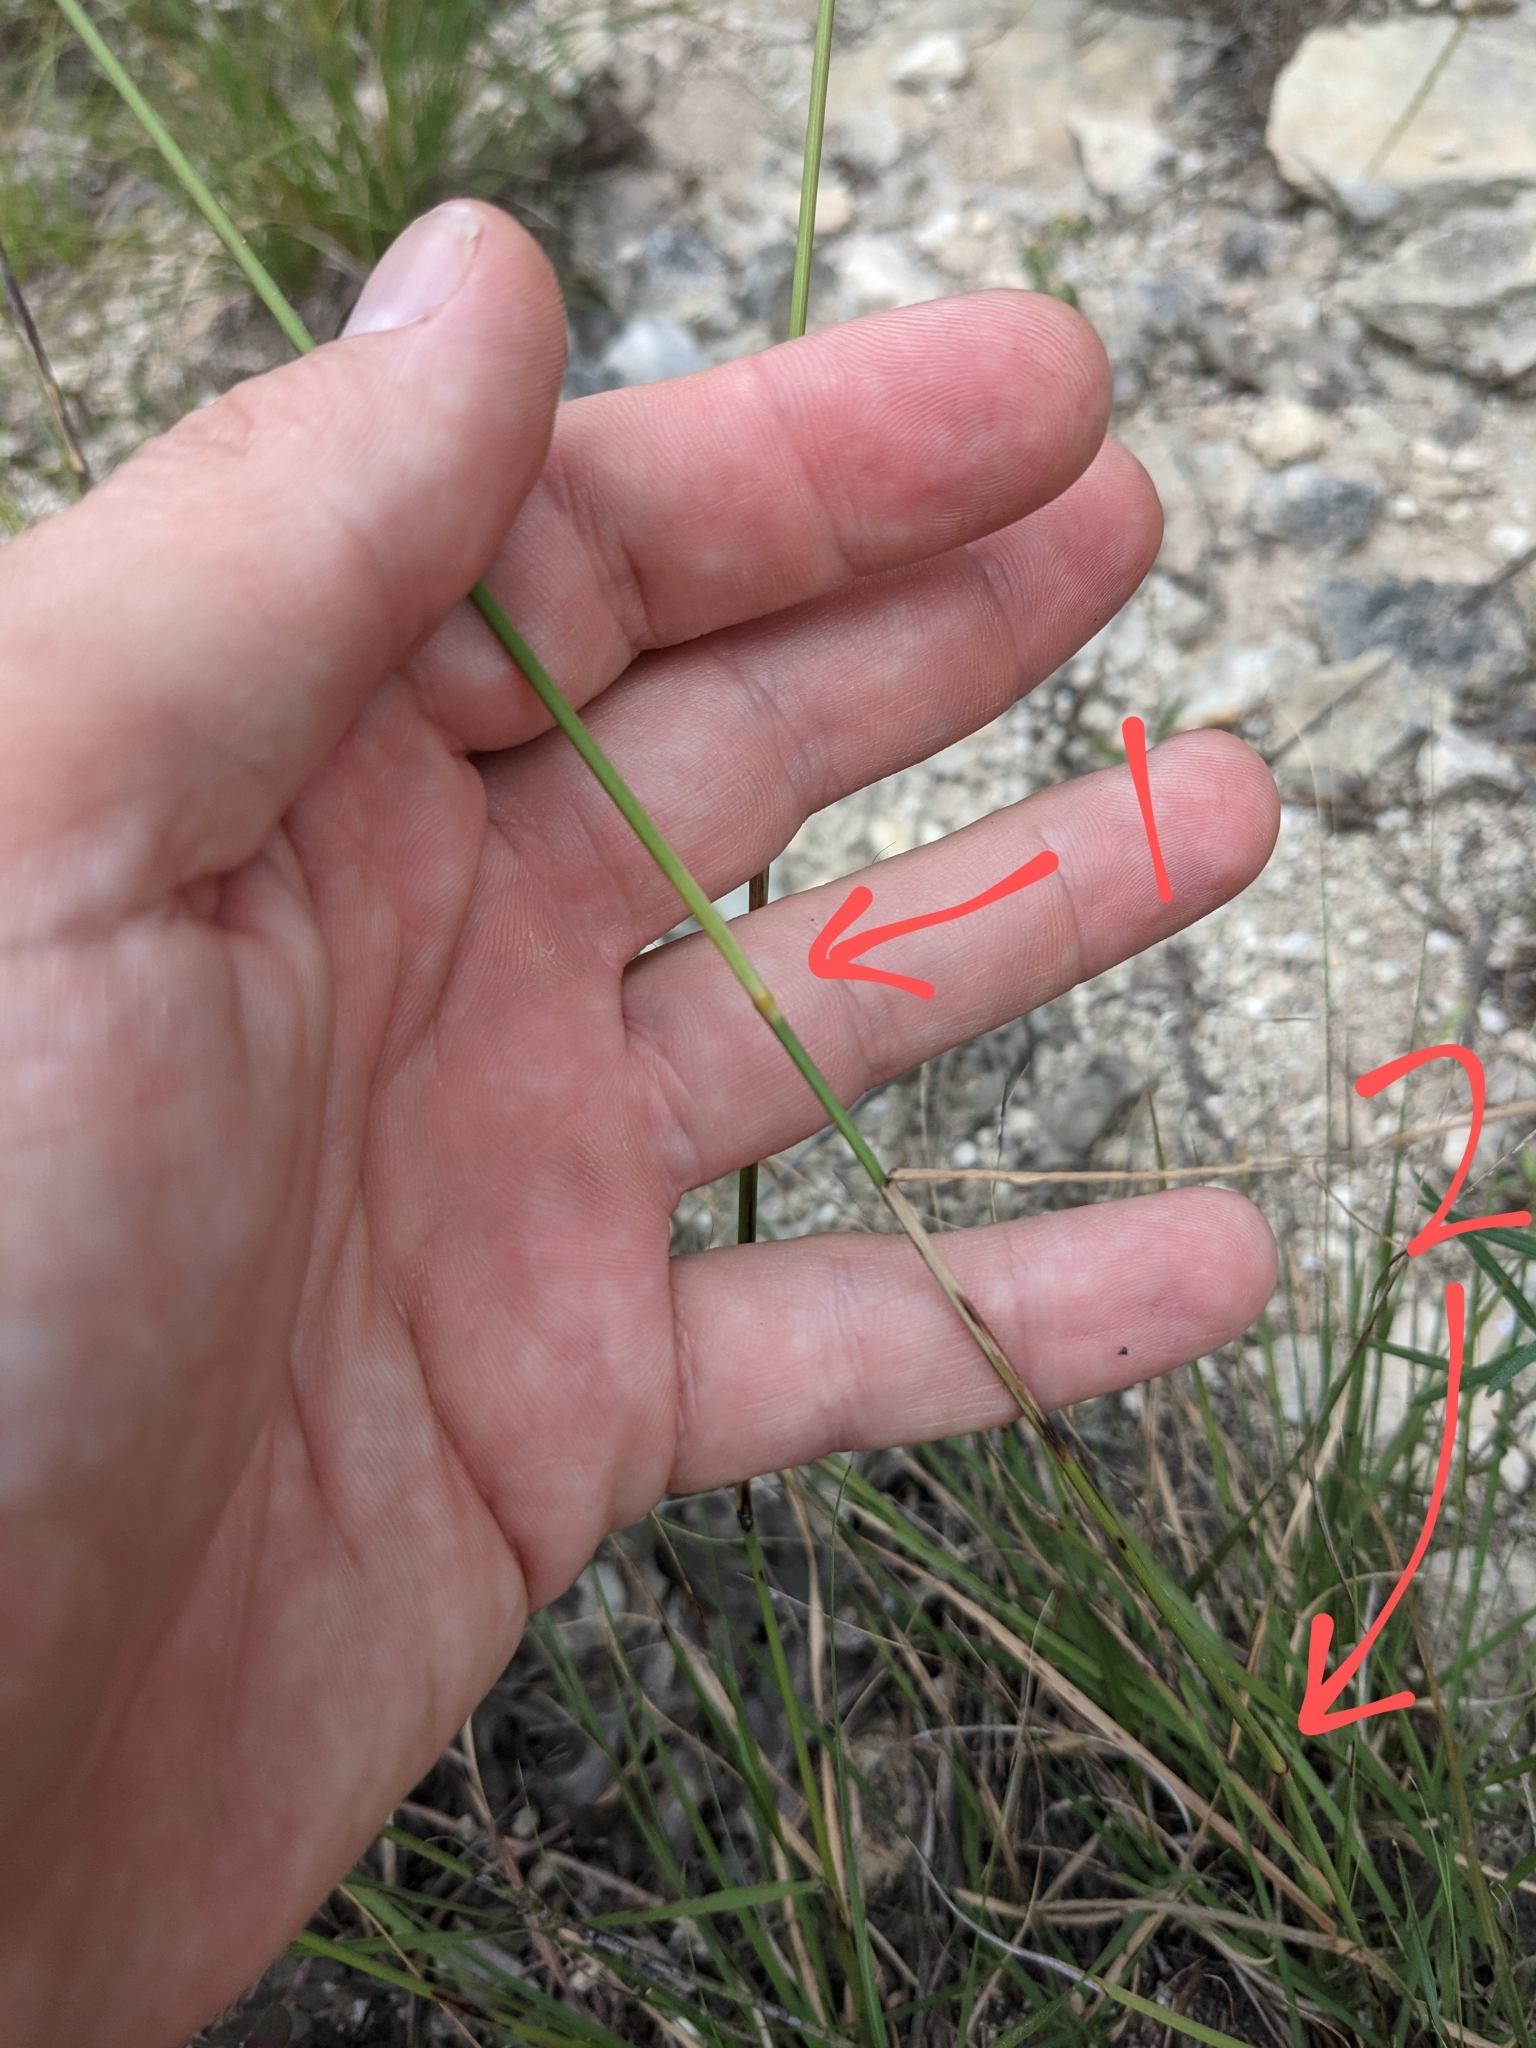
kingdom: Plantae
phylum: Tracheophyta
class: Liliopsida
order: Poales
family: Poaceae
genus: Bouteloua
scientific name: Bouteloua pectinata
